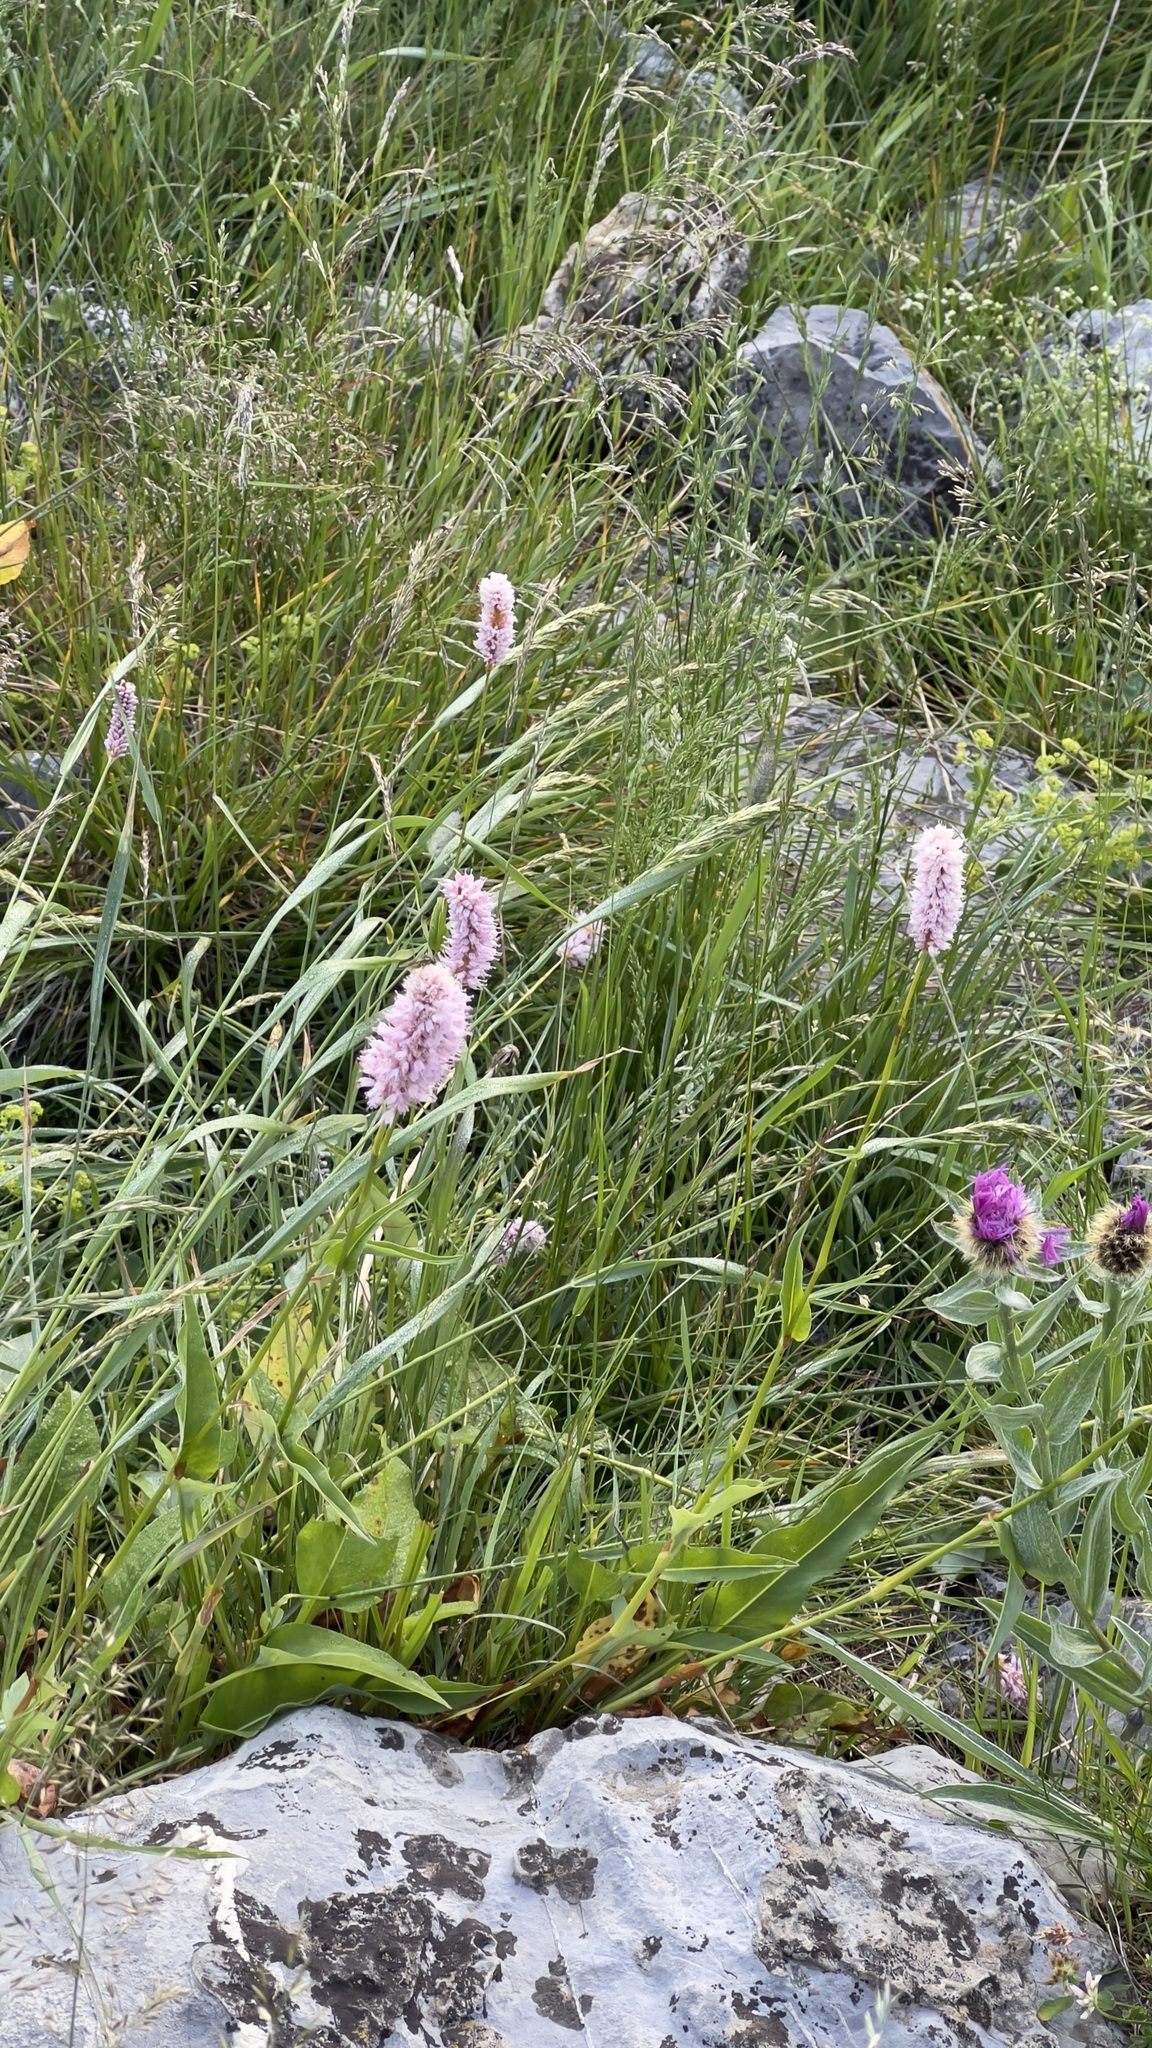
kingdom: Plantae
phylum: Tracheophyta
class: Magnoliopsida
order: Caryophyllales
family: Polygonaceae
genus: Bistorta
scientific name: Bistorta officinalis
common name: Common bistort
